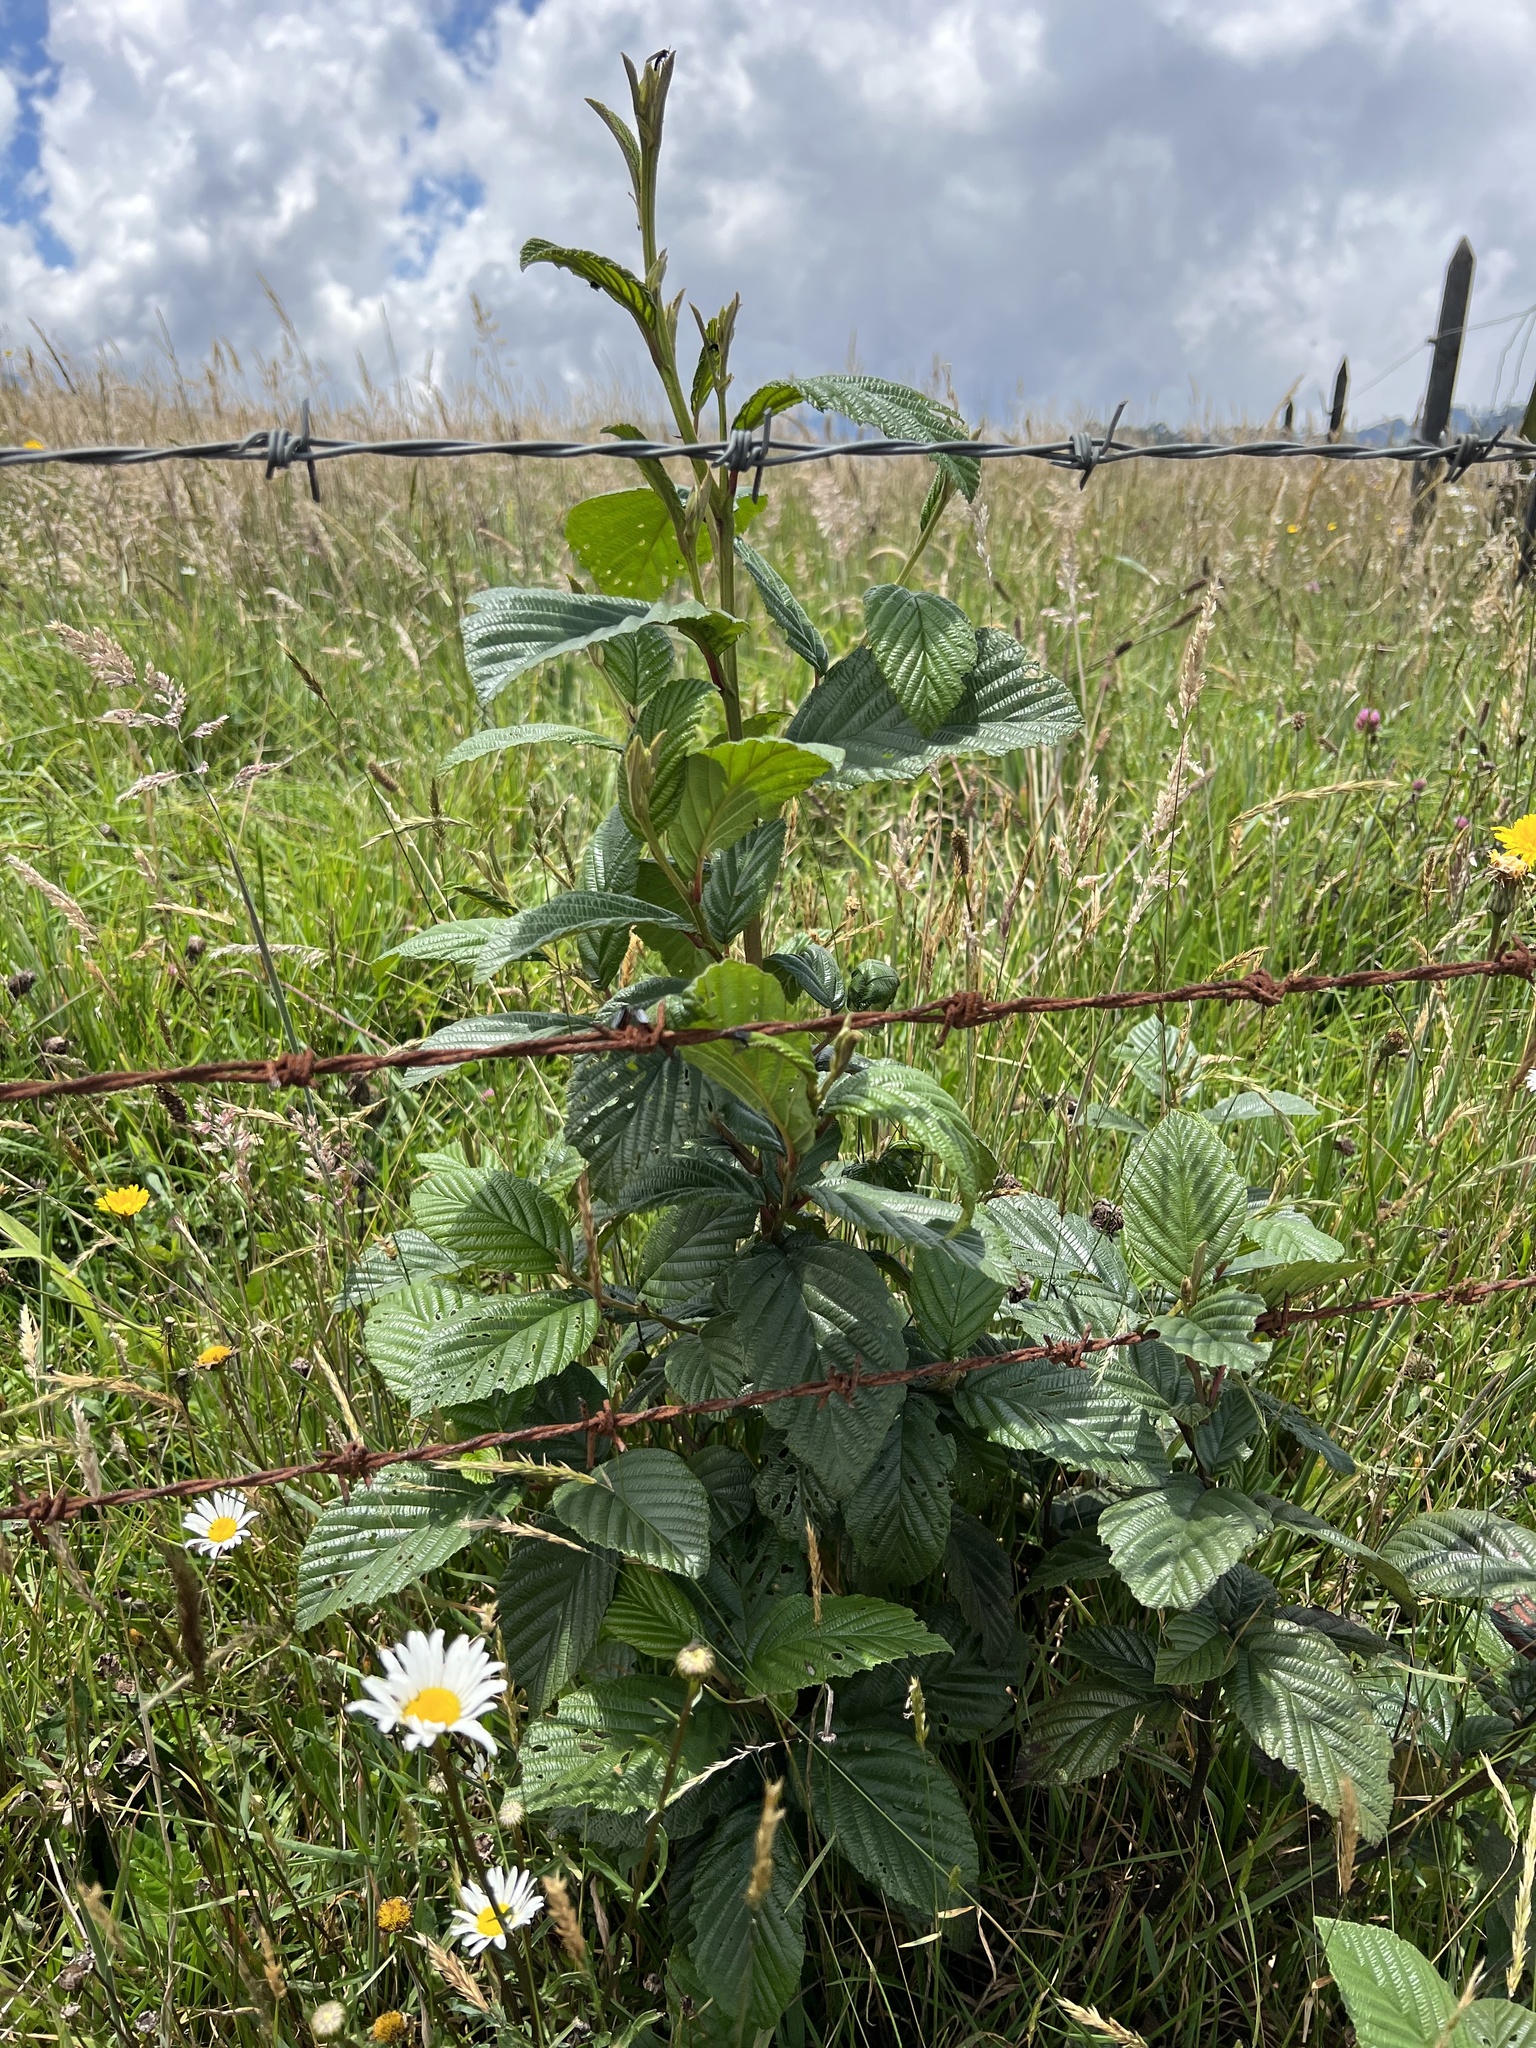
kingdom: Plantae
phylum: Tracheophyta
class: Magnoliopsida
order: Fagales
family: Betulaceae
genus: Alnus
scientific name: Alnus acuminata
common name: Alder
